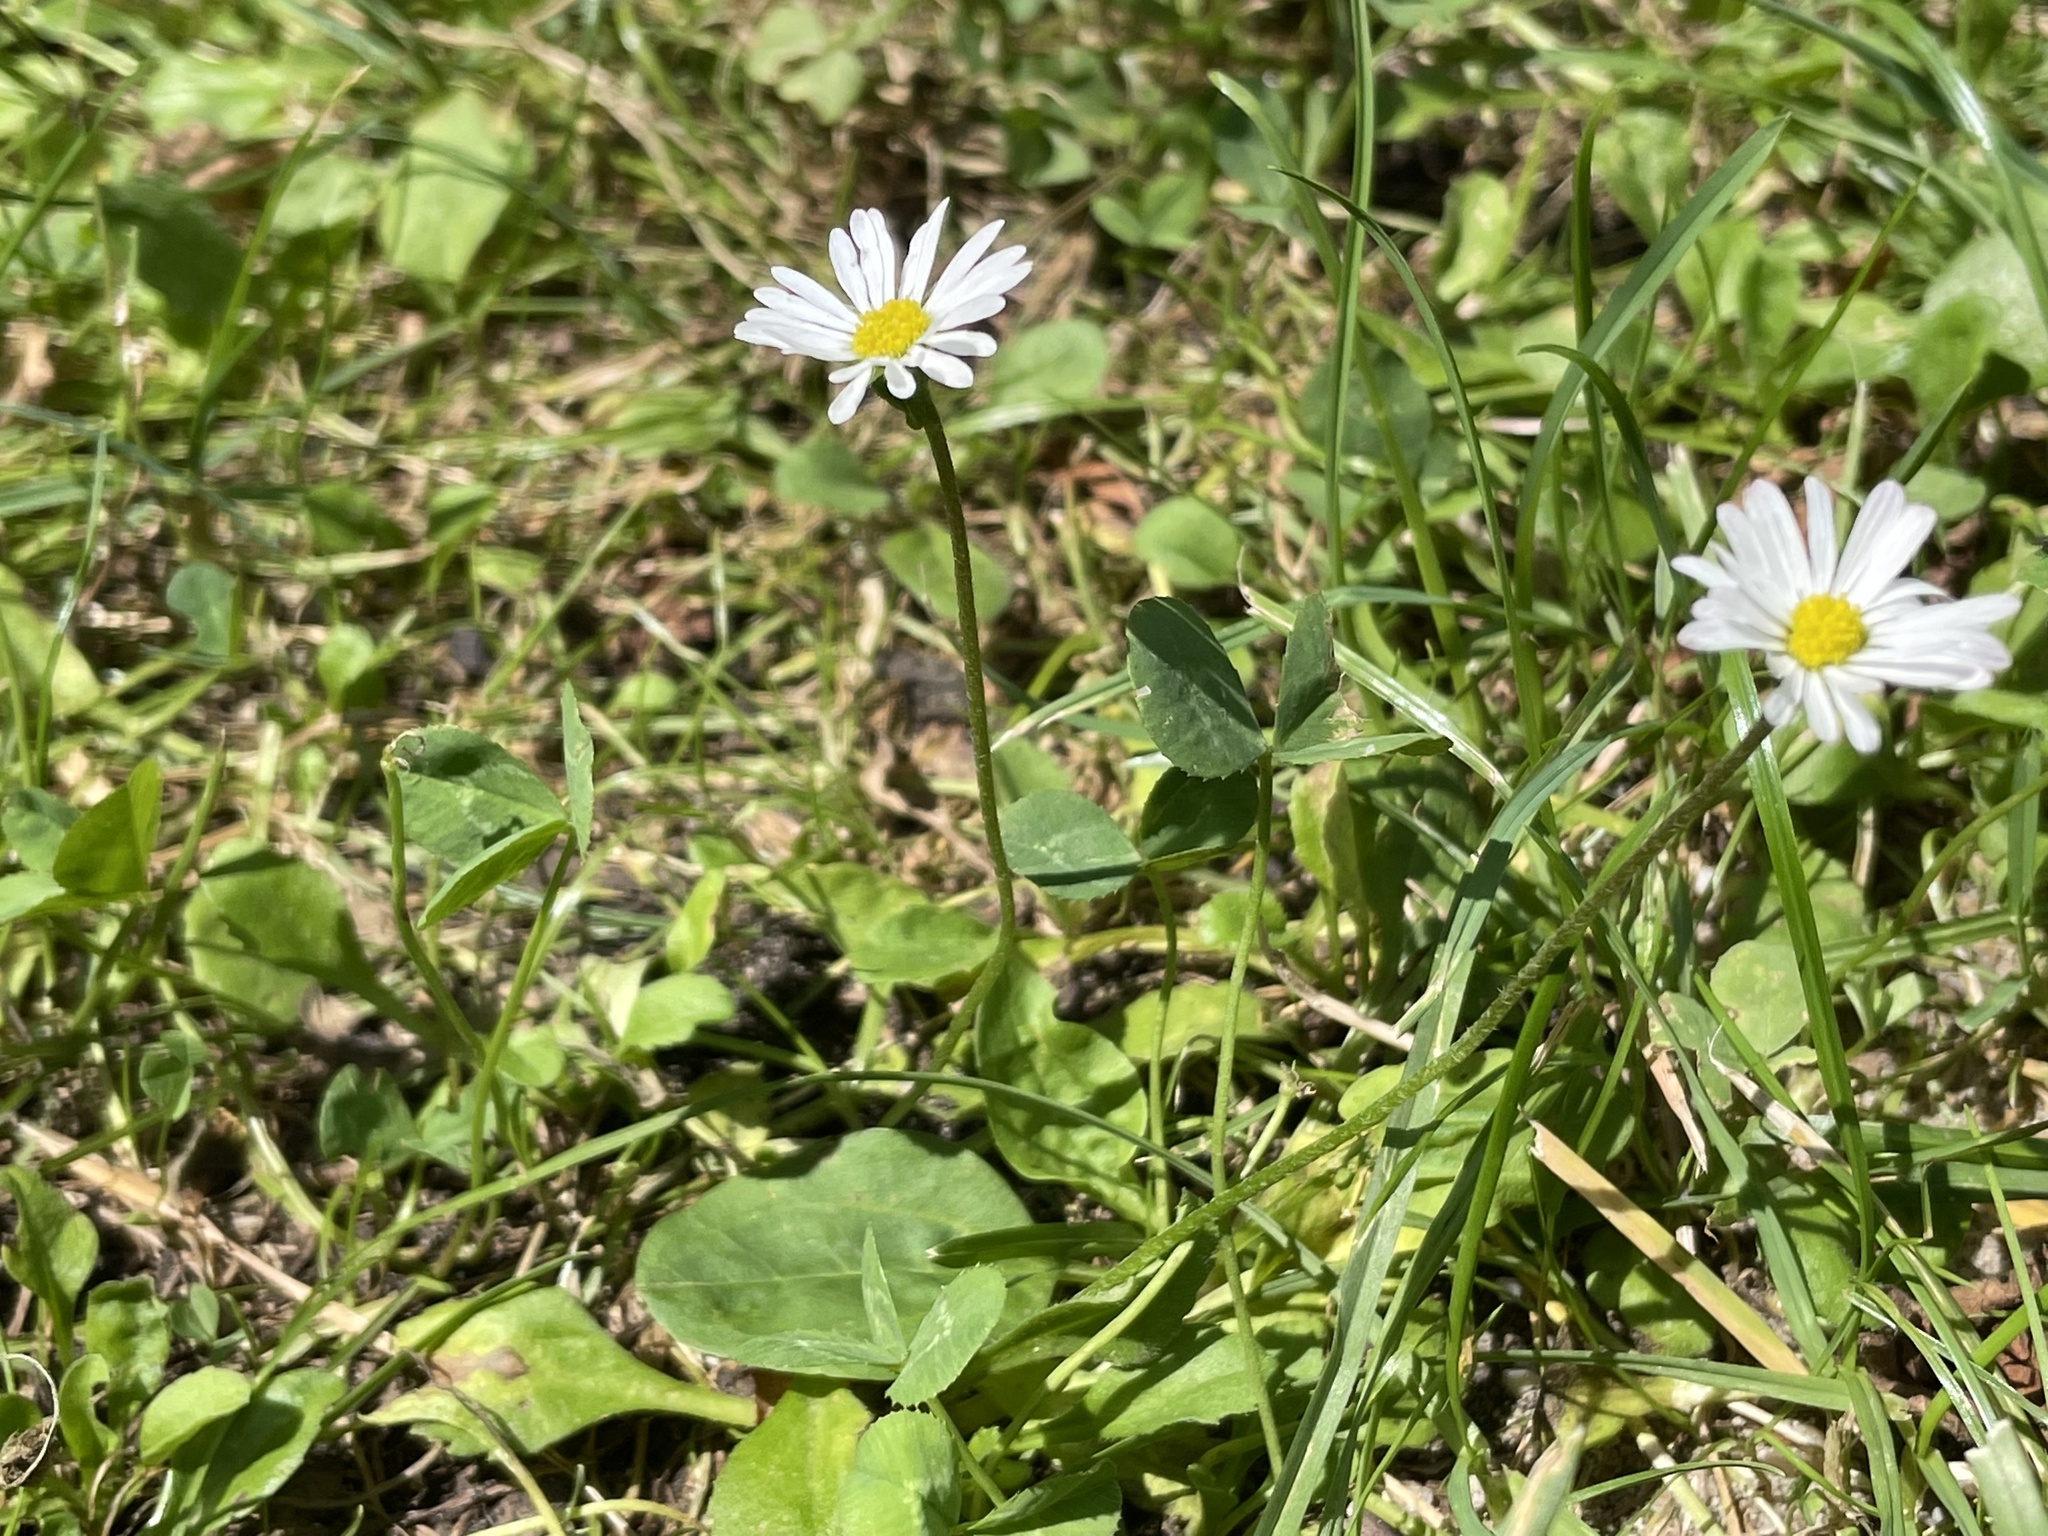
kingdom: Plantae
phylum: Tracheophyta
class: Magnoliopsida
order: Asterales
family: Asteraceae
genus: Bellis
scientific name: Bellis perennis
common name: Lawndaisy
